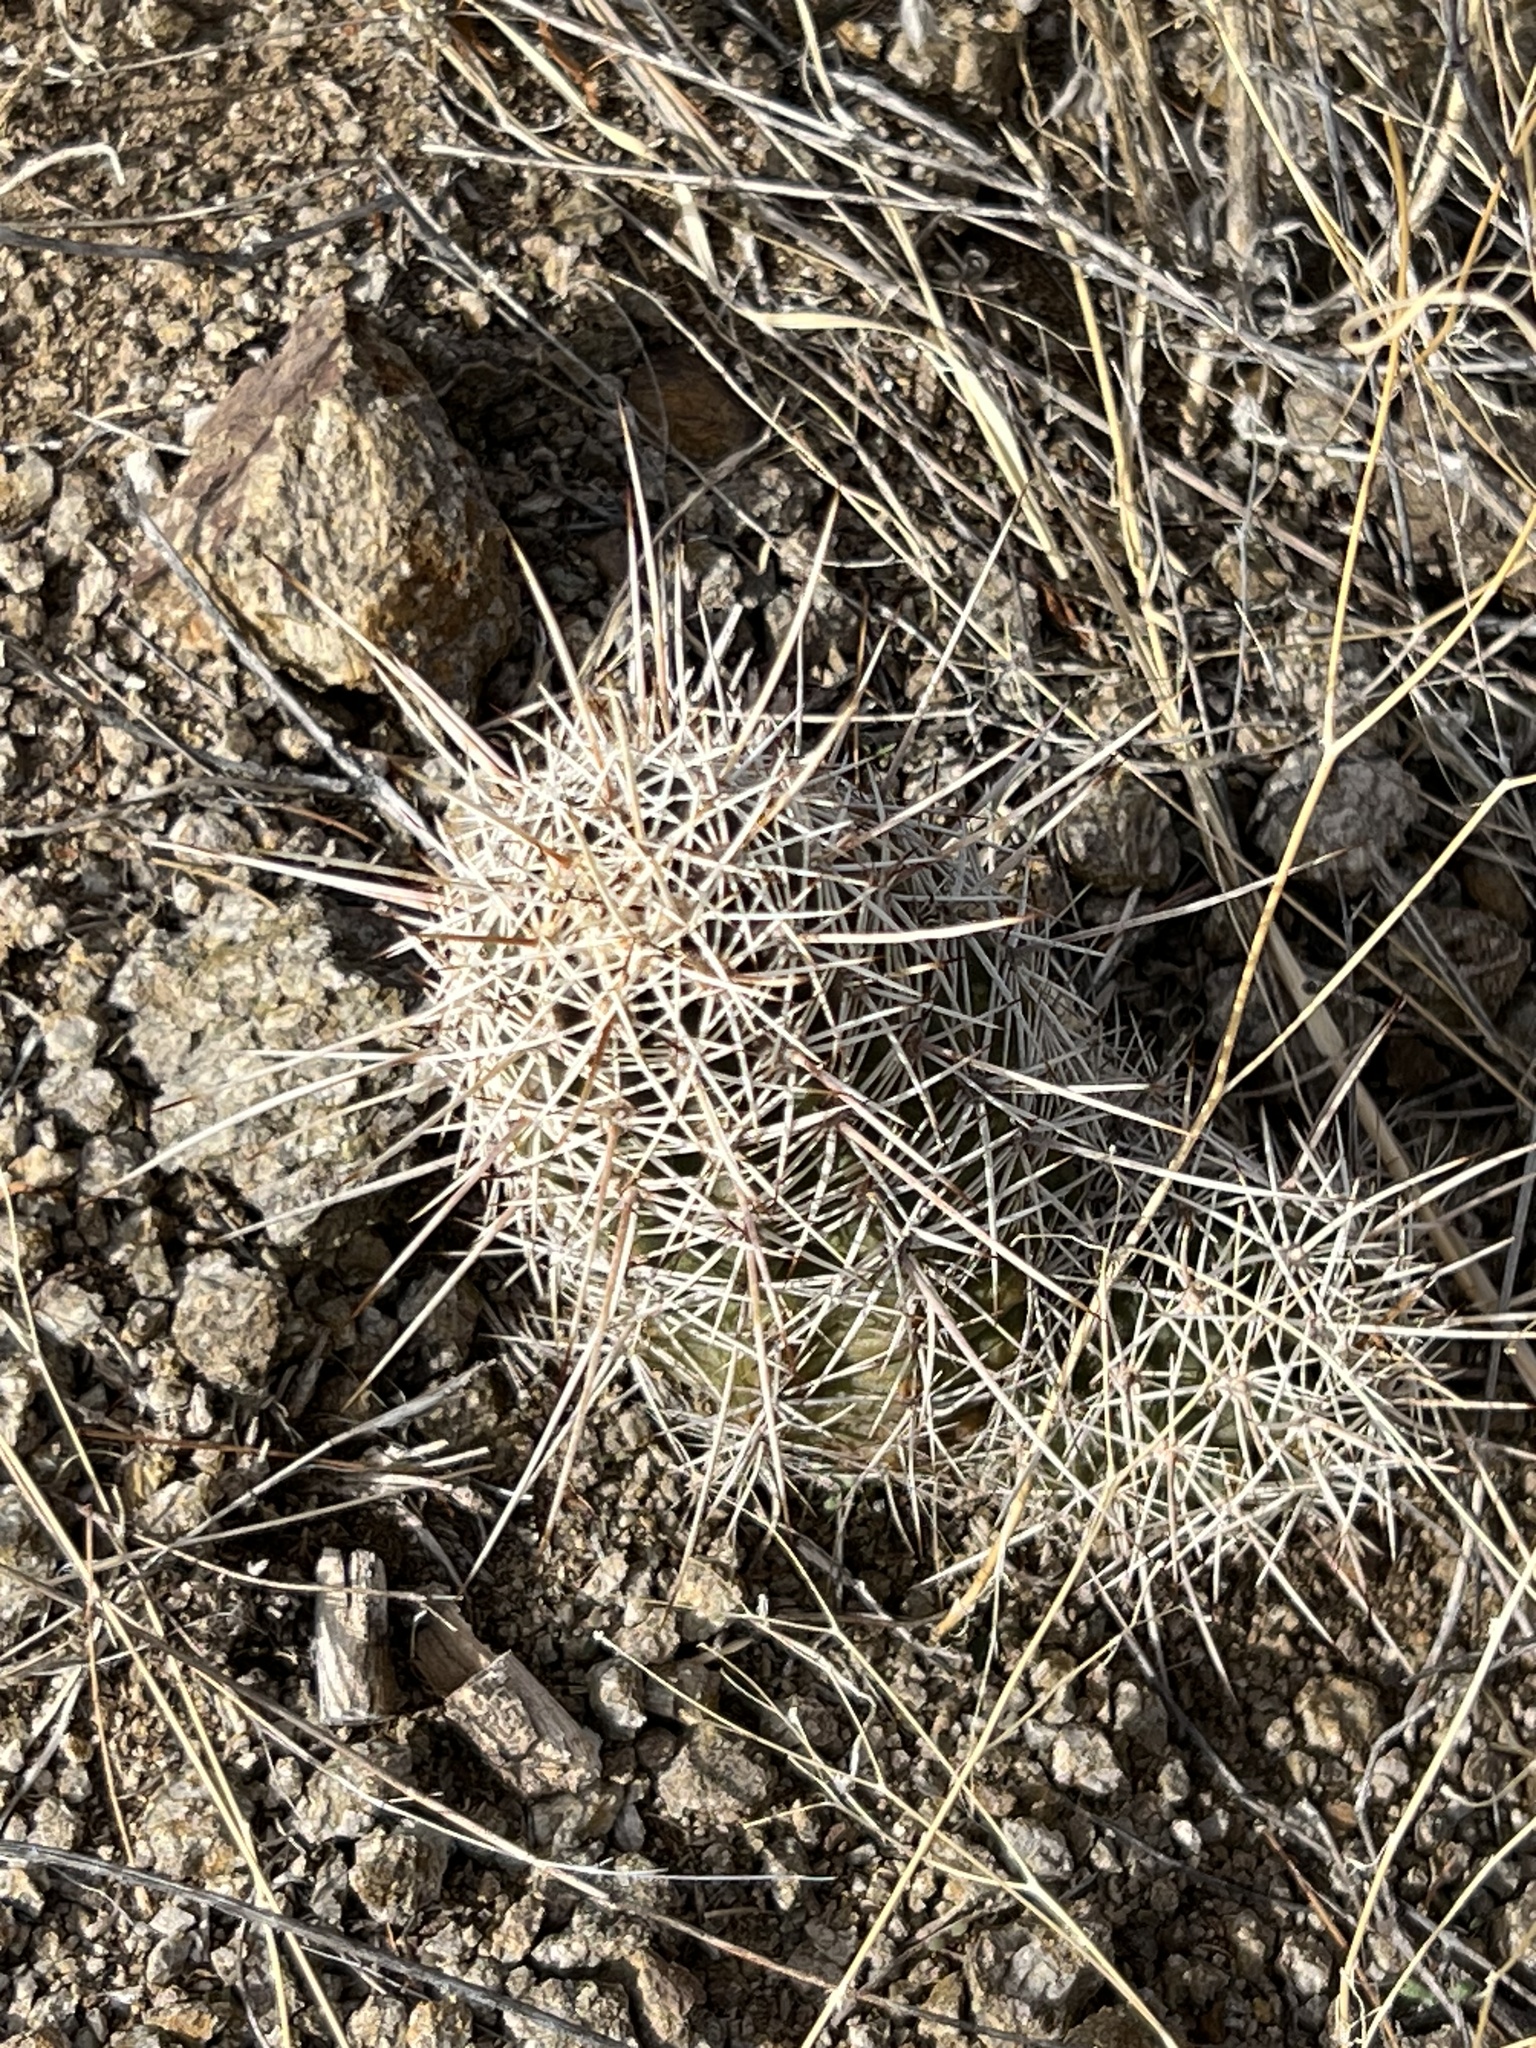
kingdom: Plantae
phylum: Tracheophyta
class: Magnoliopsida
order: Caryophyllales
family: Cactaceae
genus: Echinocereus
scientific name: Echinocereus fasciculatus
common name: Bundle hedgehog
